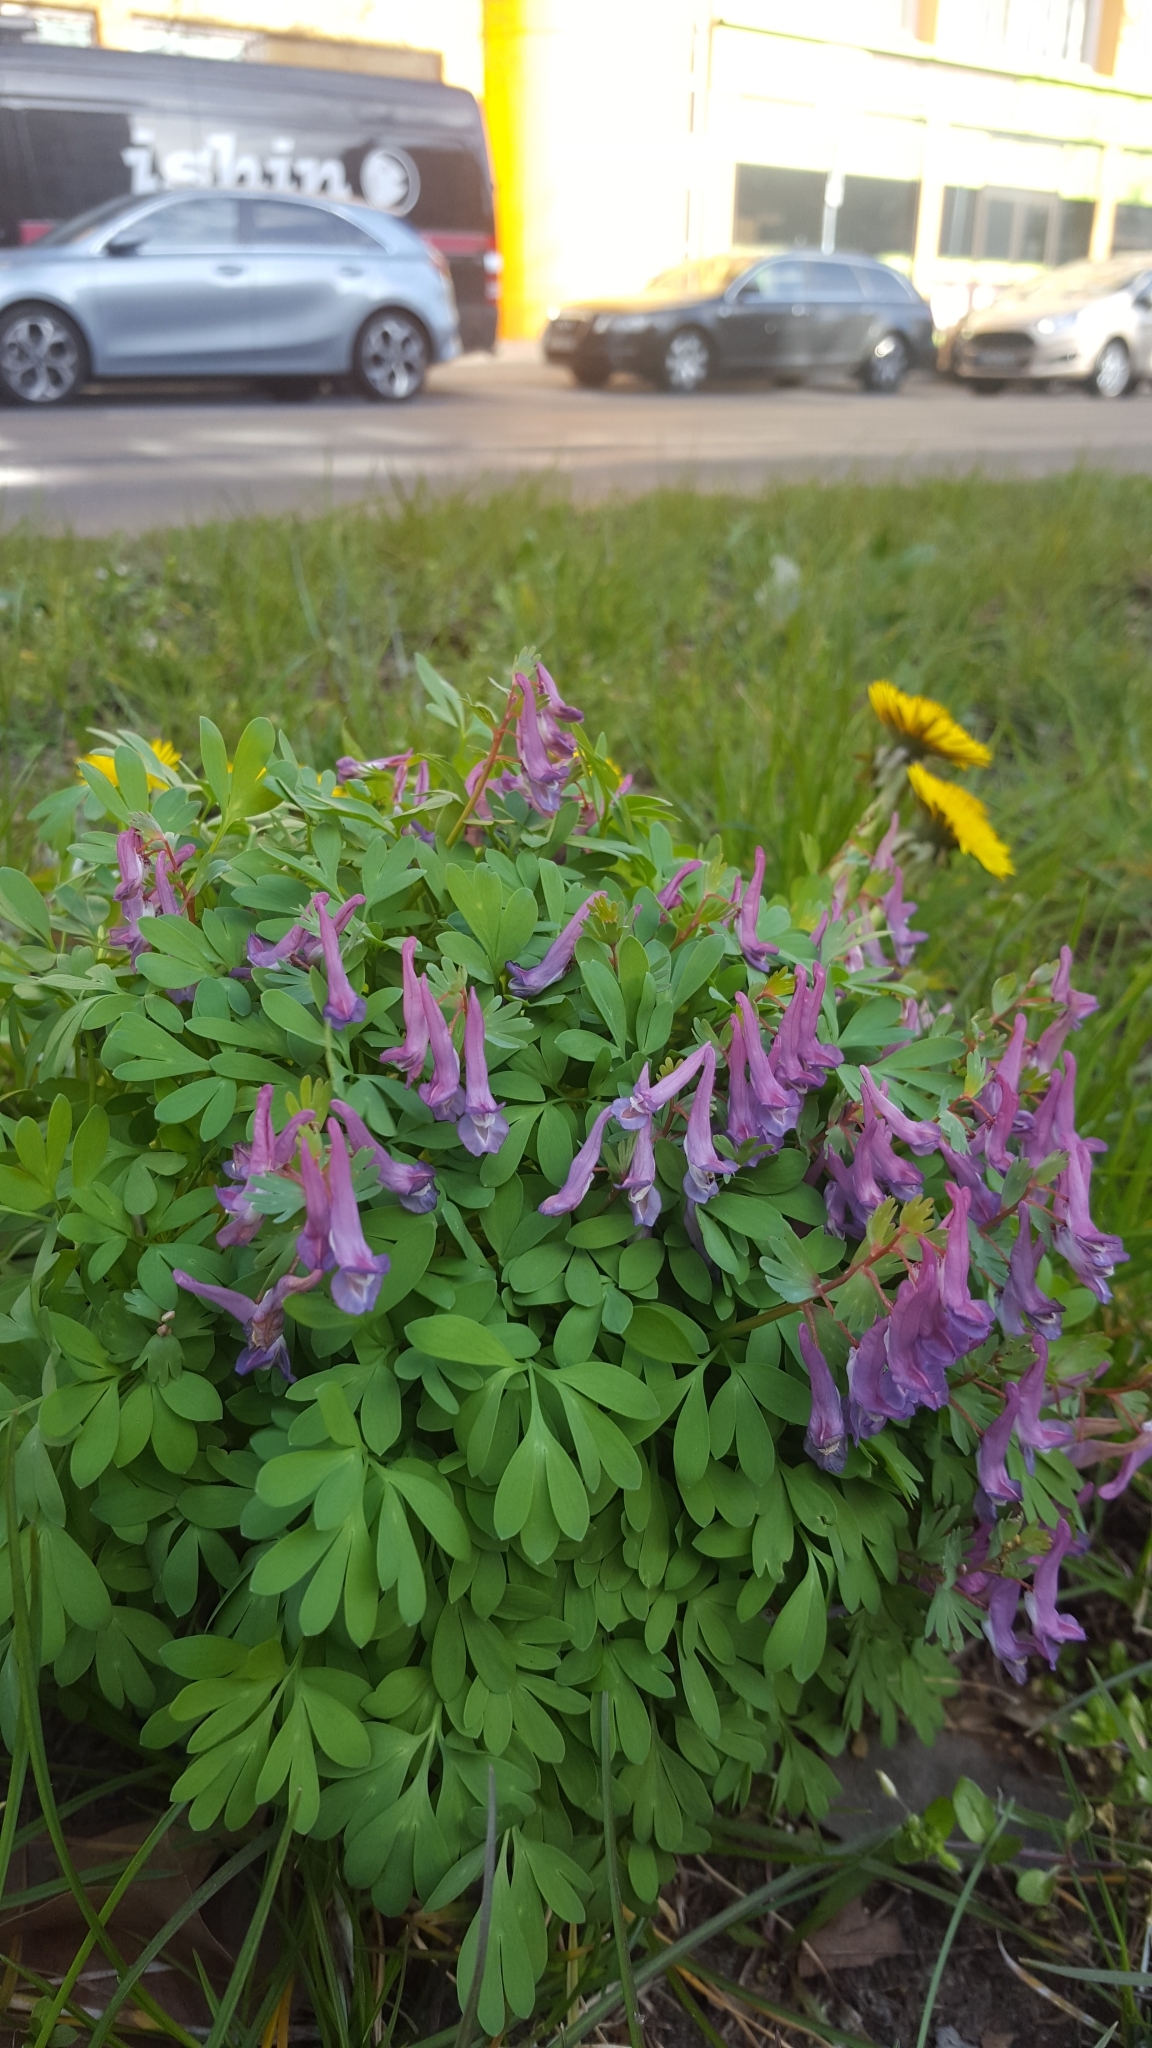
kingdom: Plantae
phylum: Tracheophyta
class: Magnoliopsida
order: Ranunculales
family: Papaveraceae
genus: Corydalis
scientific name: Corydalis solida
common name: Bird-in-a-bush
